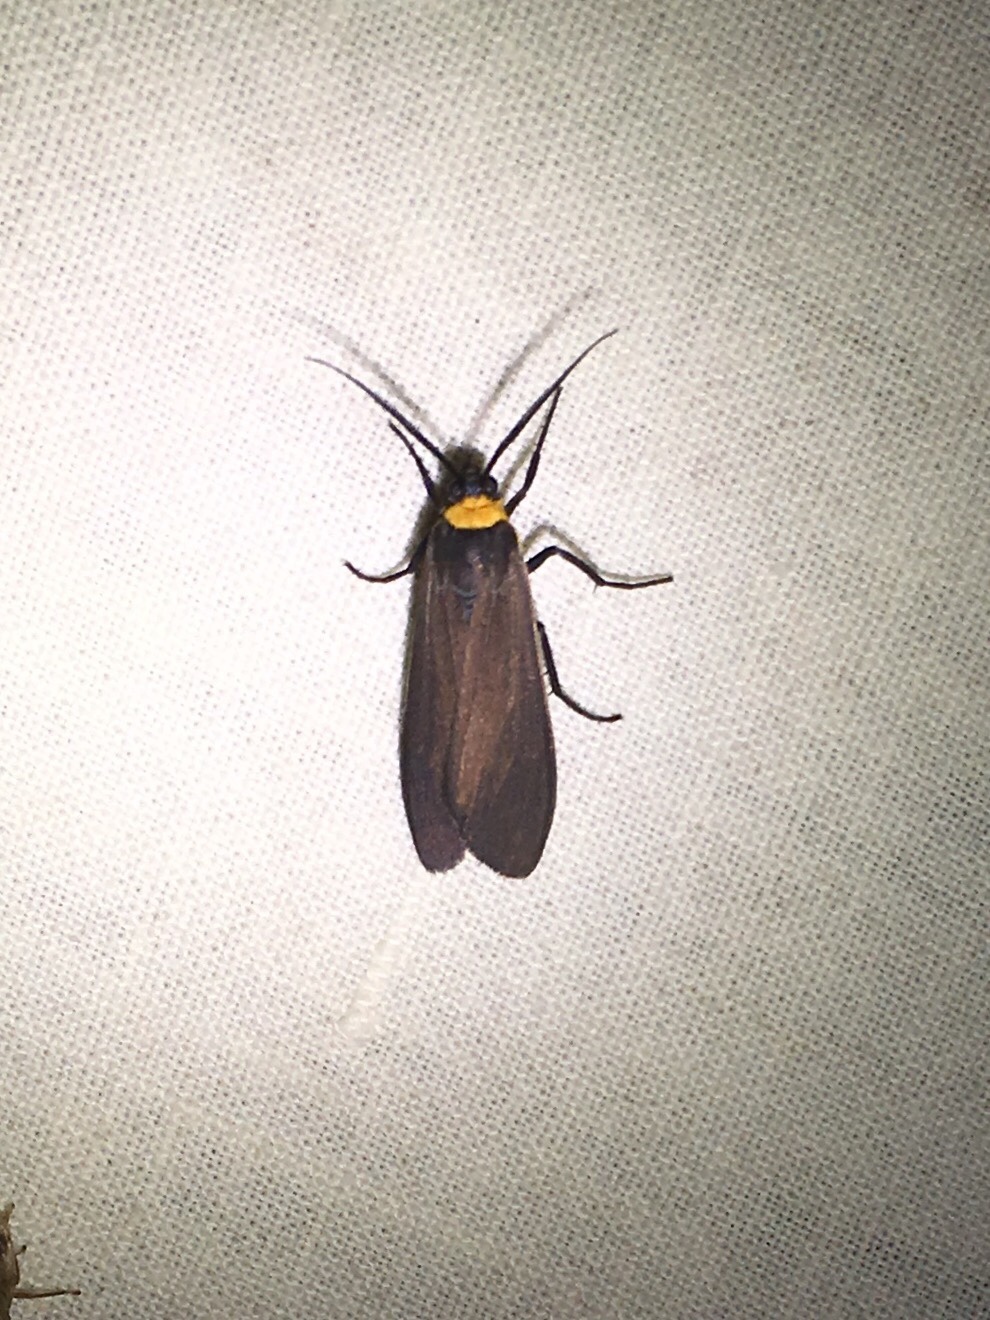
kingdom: Animalia
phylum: Arthropoda
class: Insecta
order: Lepidoptera
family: Erebidae
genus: Cisseps
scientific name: Cisseps fulvicollis
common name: Yellow-collared scape moth
